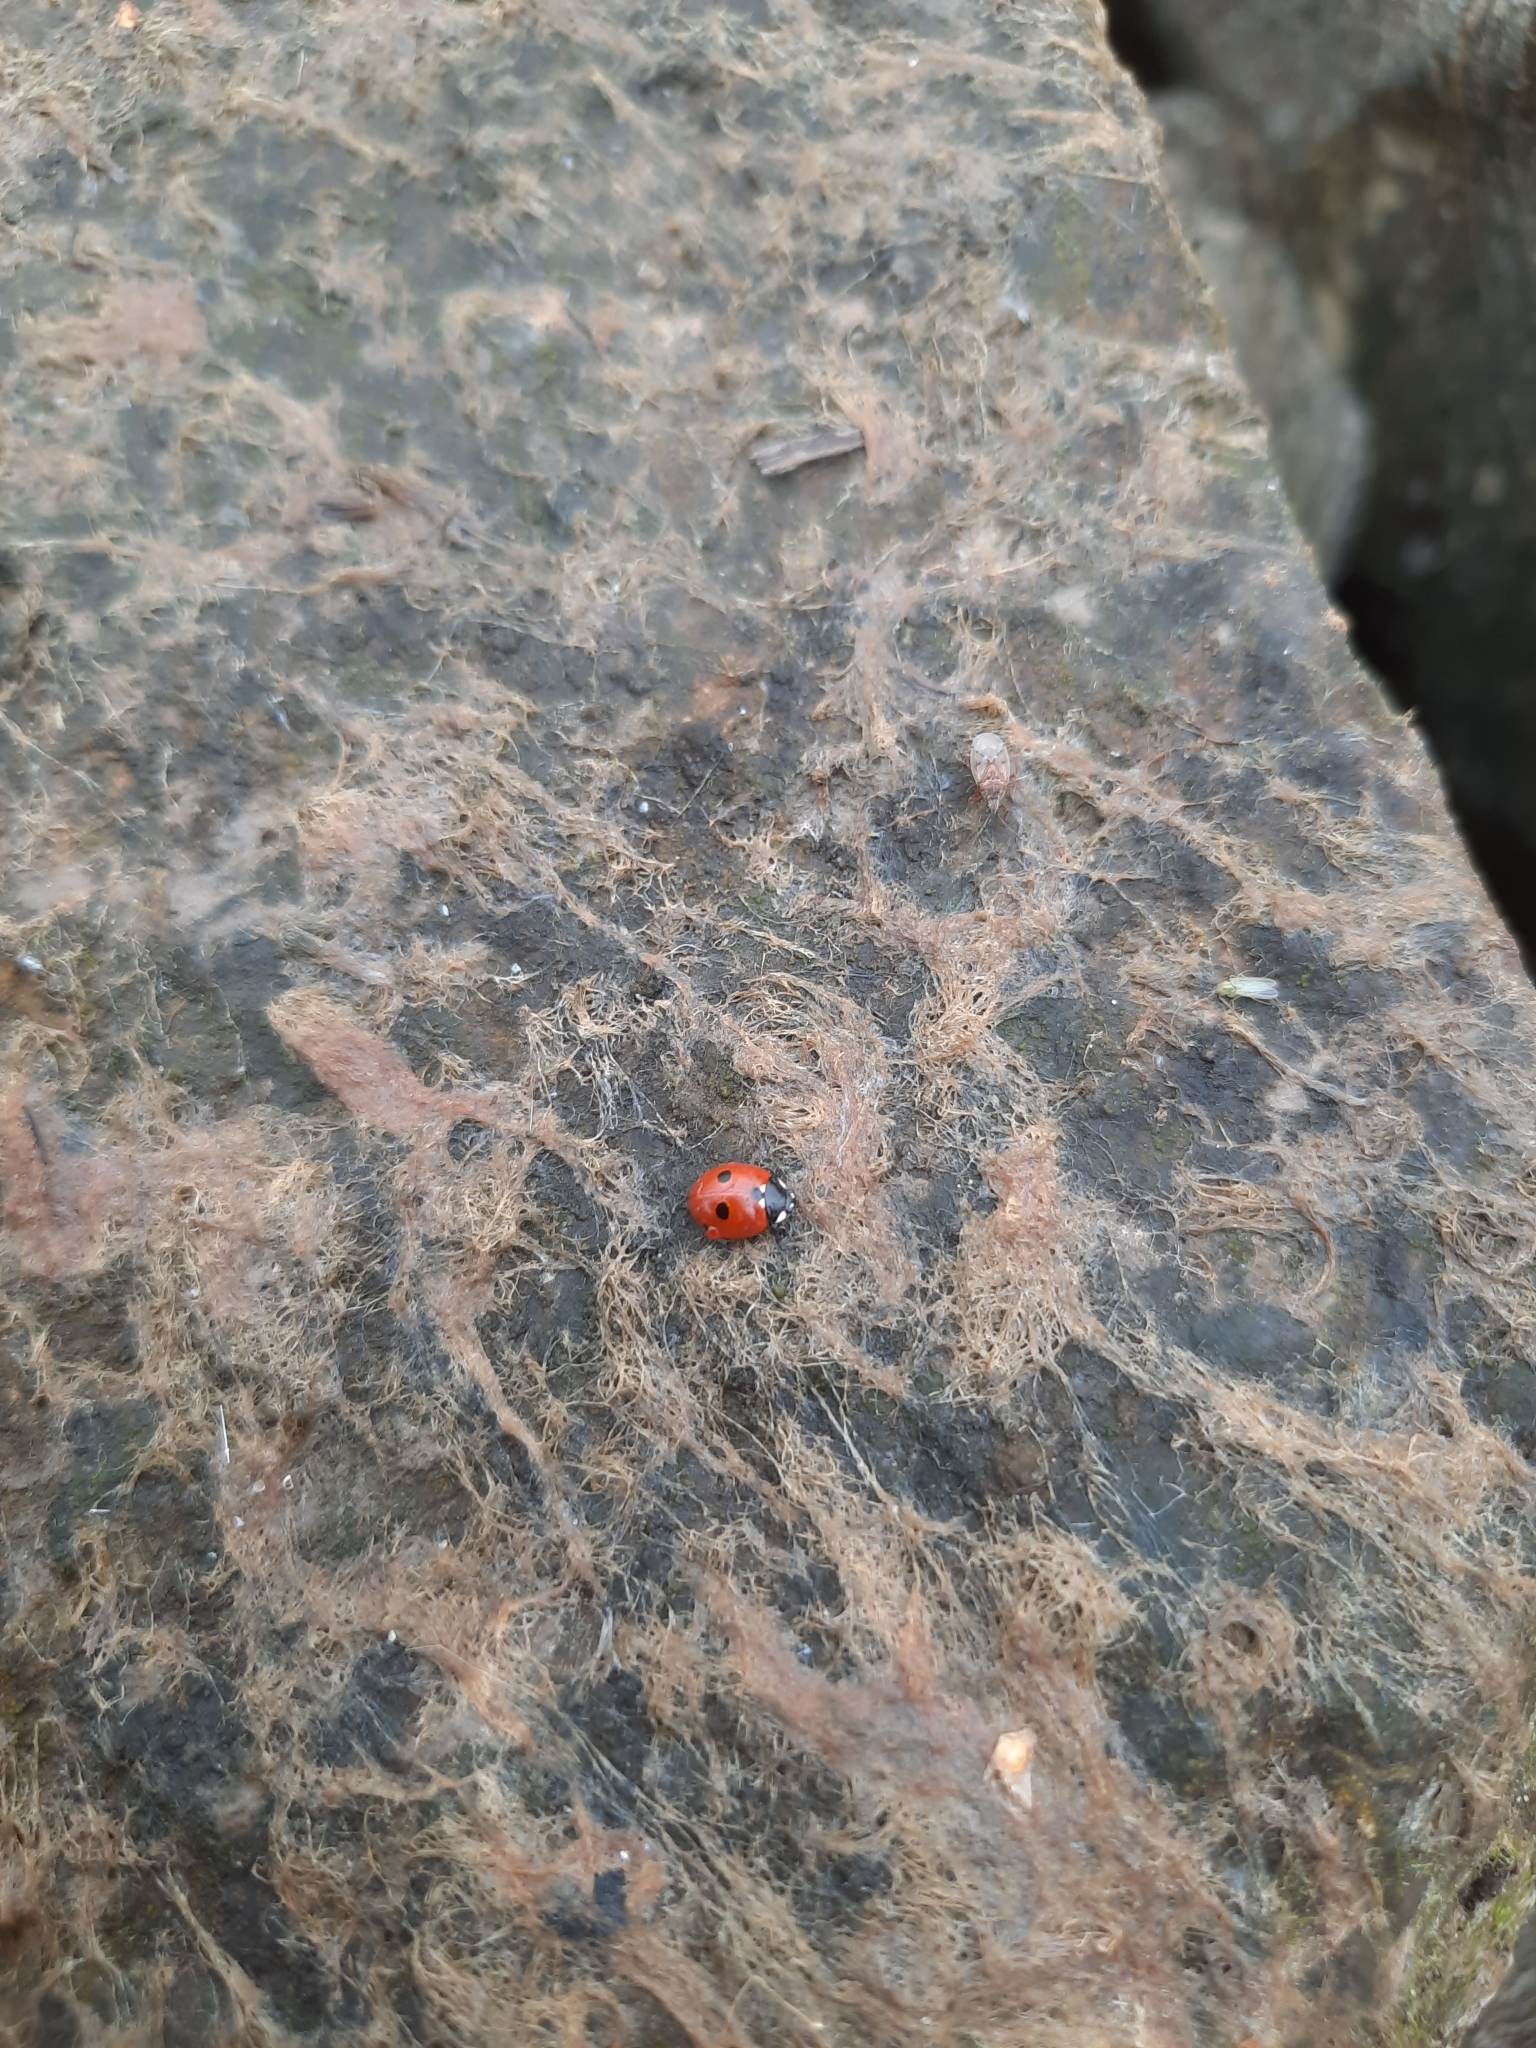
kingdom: Animalia
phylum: Arthropoda
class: Insecta
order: Coleoptera
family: Coccinellidae
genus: Coccinella
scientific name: Coccinella quinquepunctata
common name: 5-spot ladybird
